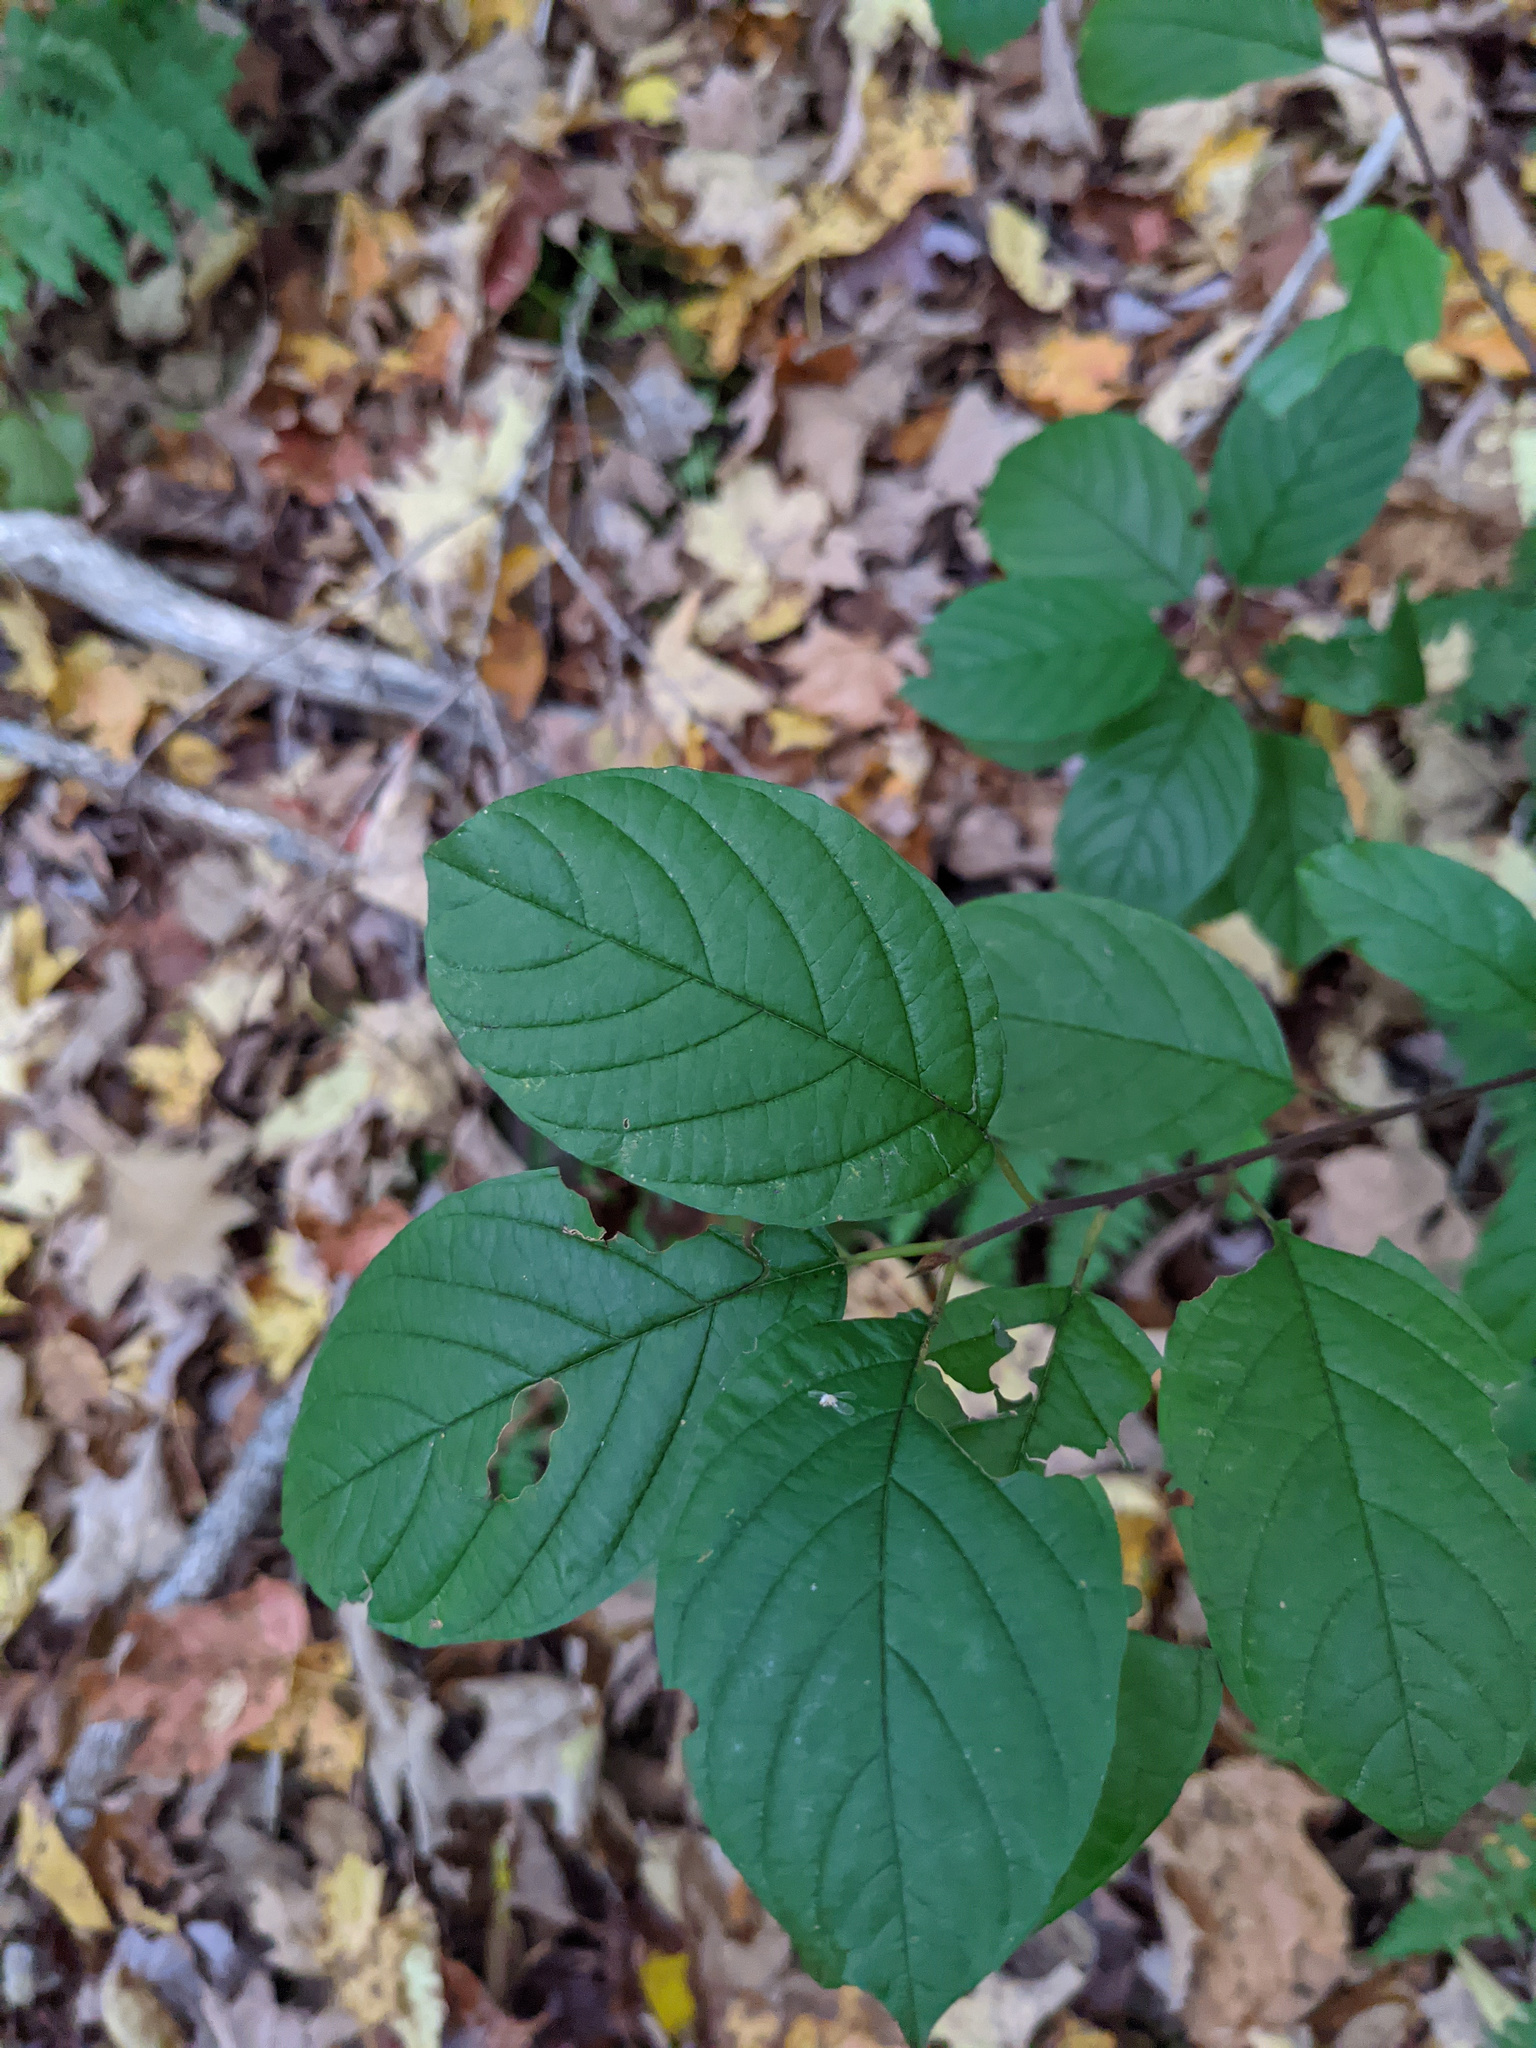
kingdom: Plantae
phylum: Tracheophyta
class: Magnoliopsida
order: Rosales
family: Rhamnaceae
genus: Frangula
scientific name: Frangula alnus
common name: Alder buckthorn
